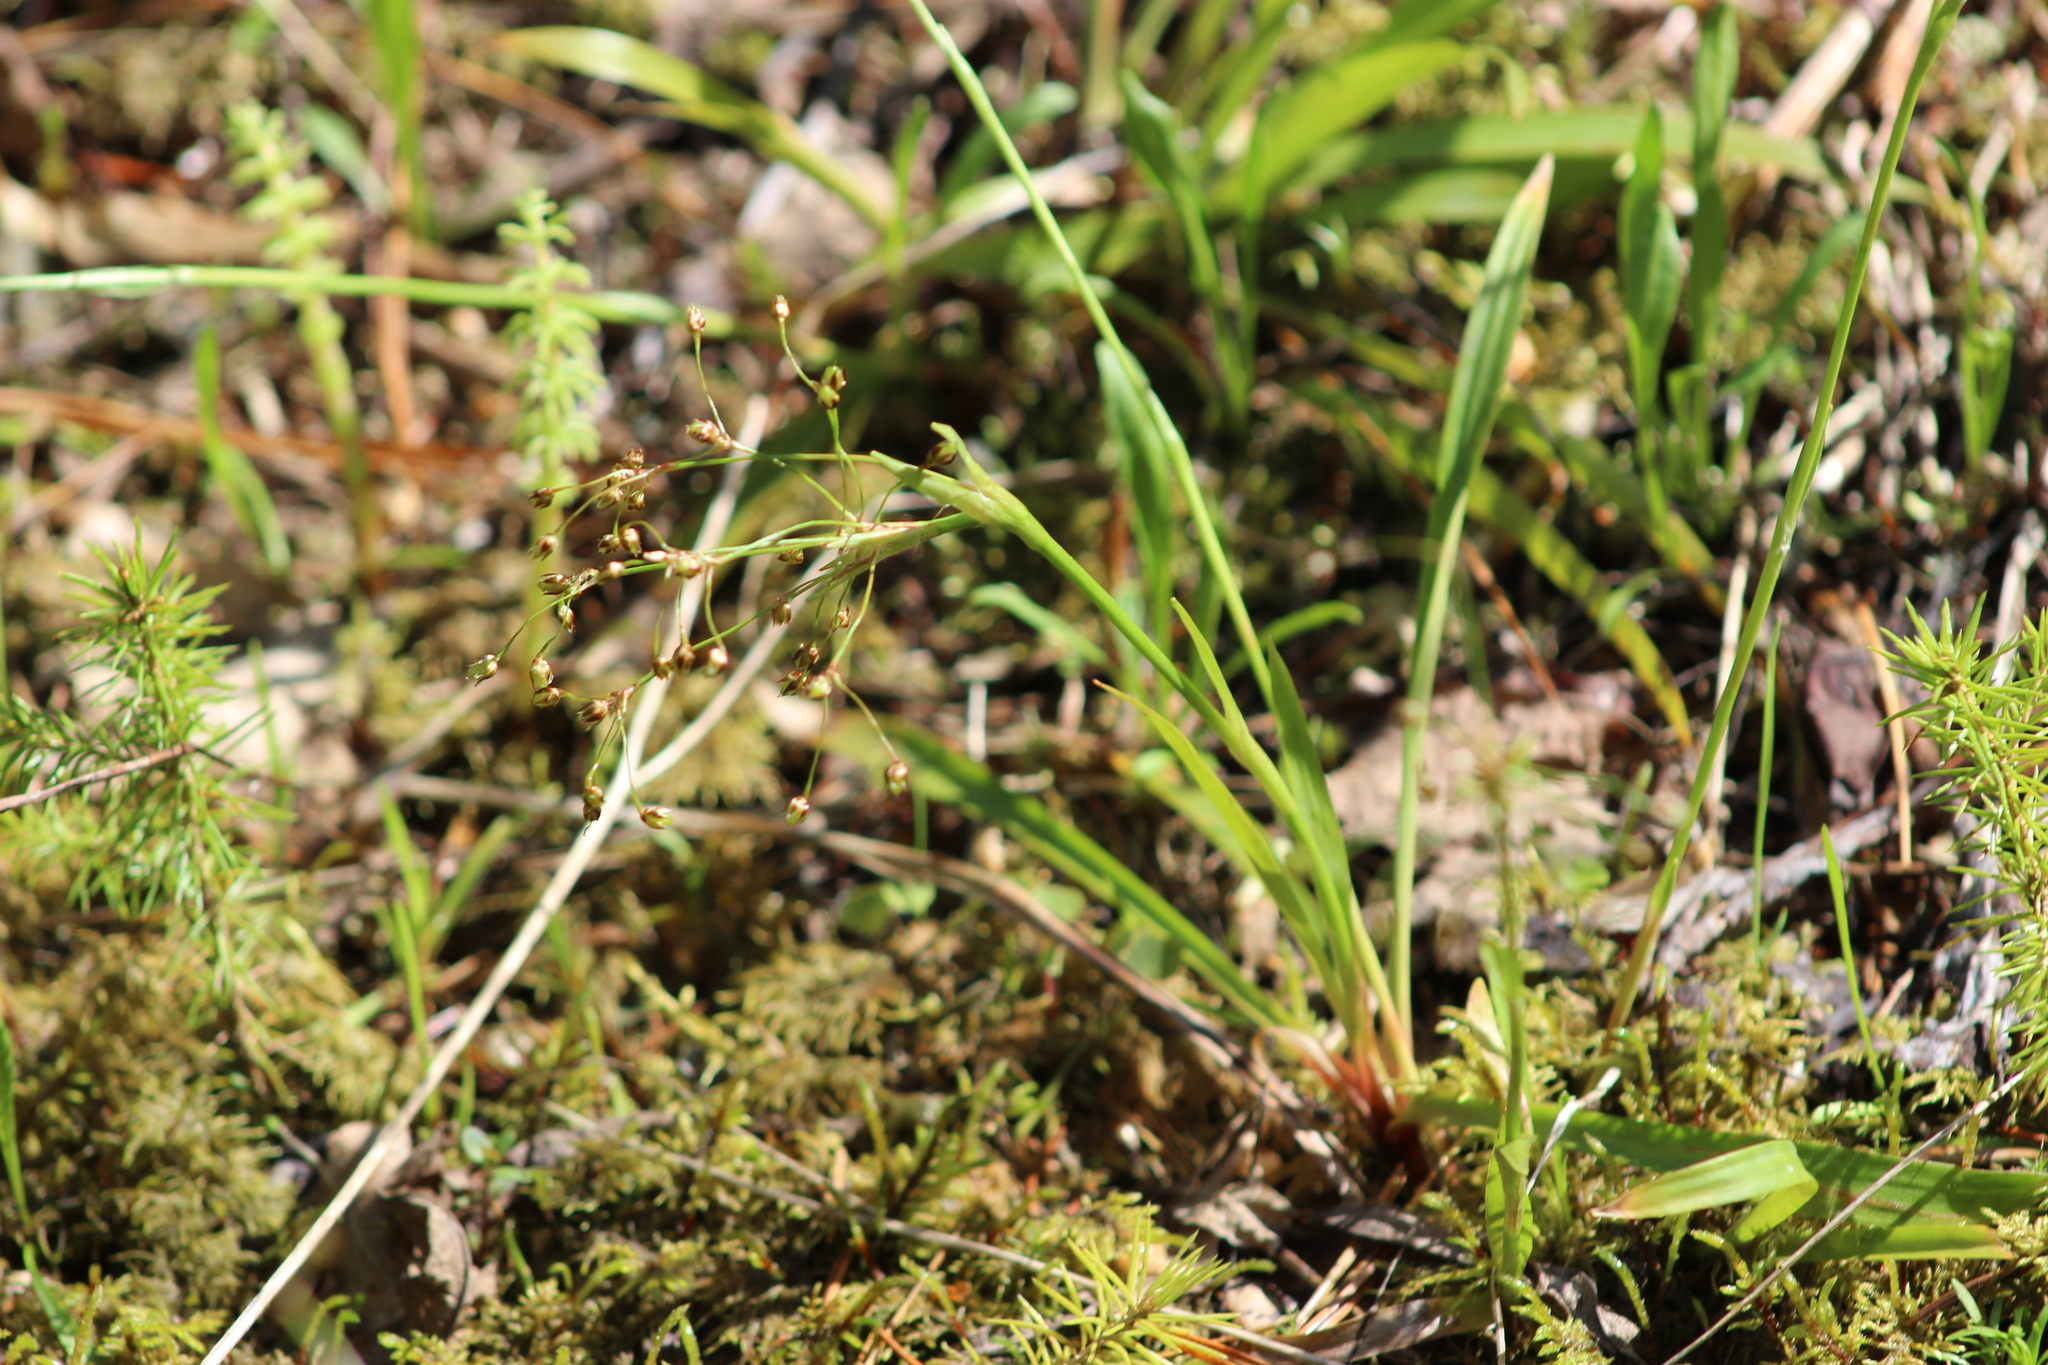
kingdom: Plantae
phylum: Tracheophyta
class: Liliopsida
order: Poales
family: Juncaceae
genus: Luzula
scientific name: Luzula pilosa
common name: Hairy wood-rush
